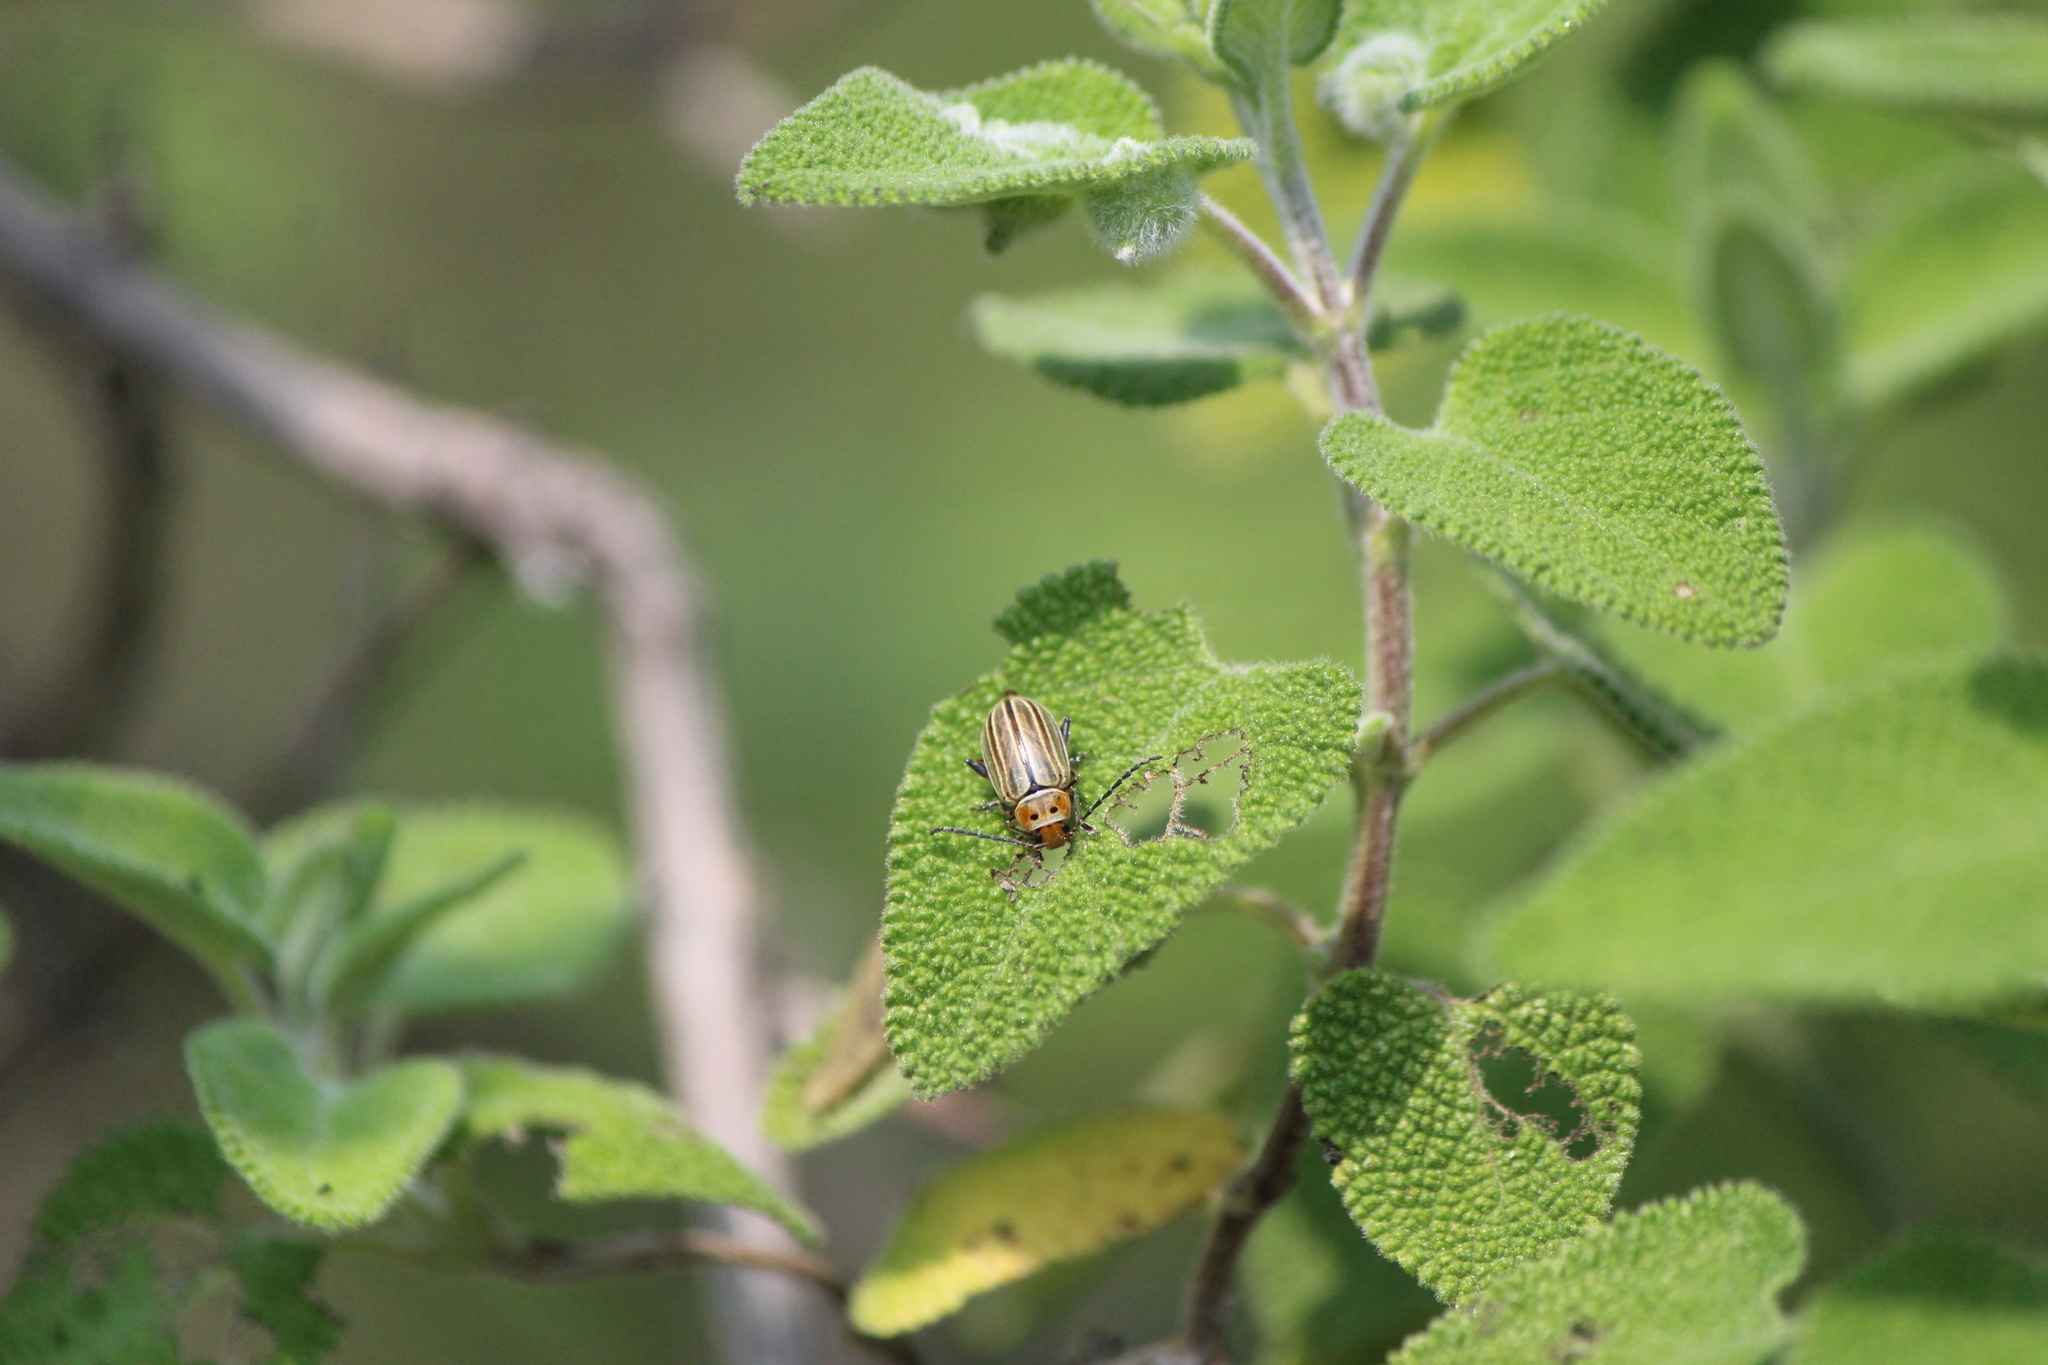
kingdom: Animalia
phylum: Arthropoda
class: Insecta
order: Coleoptera
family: Chrysomelidae
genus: Disonycha
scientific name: Disonycha figurata
